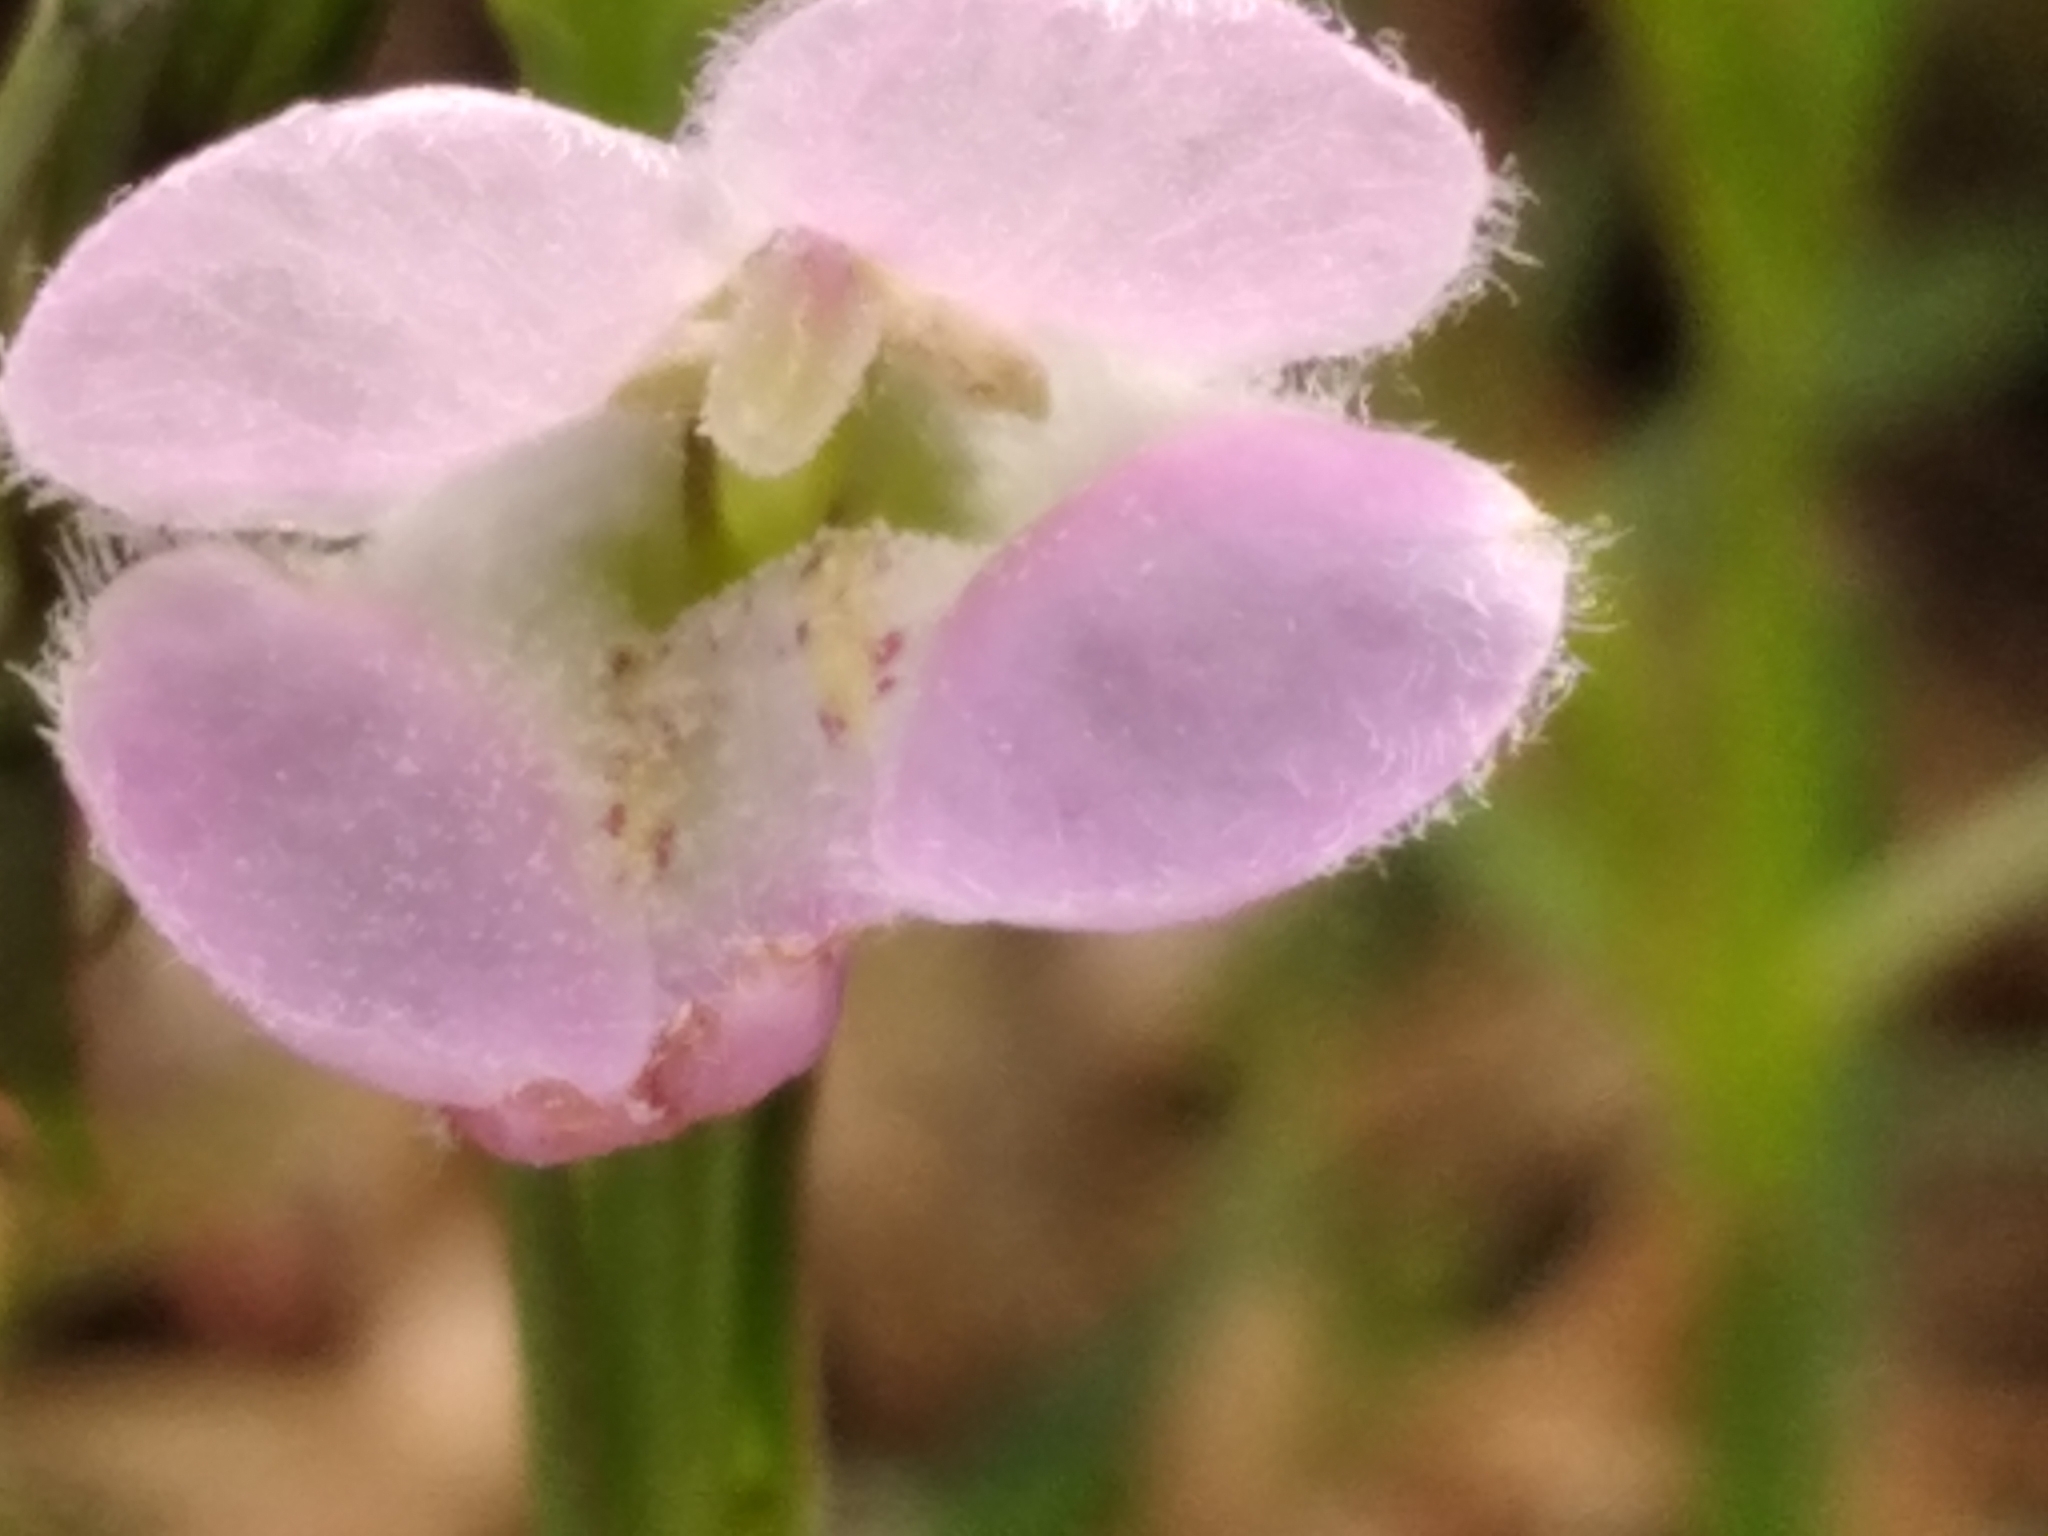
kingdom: Plantae
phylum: Tracheophyta
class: Magnoliopsida
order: Lamiales
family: Orobanchaceae
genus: Agalinis
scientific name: Agalinis communis
